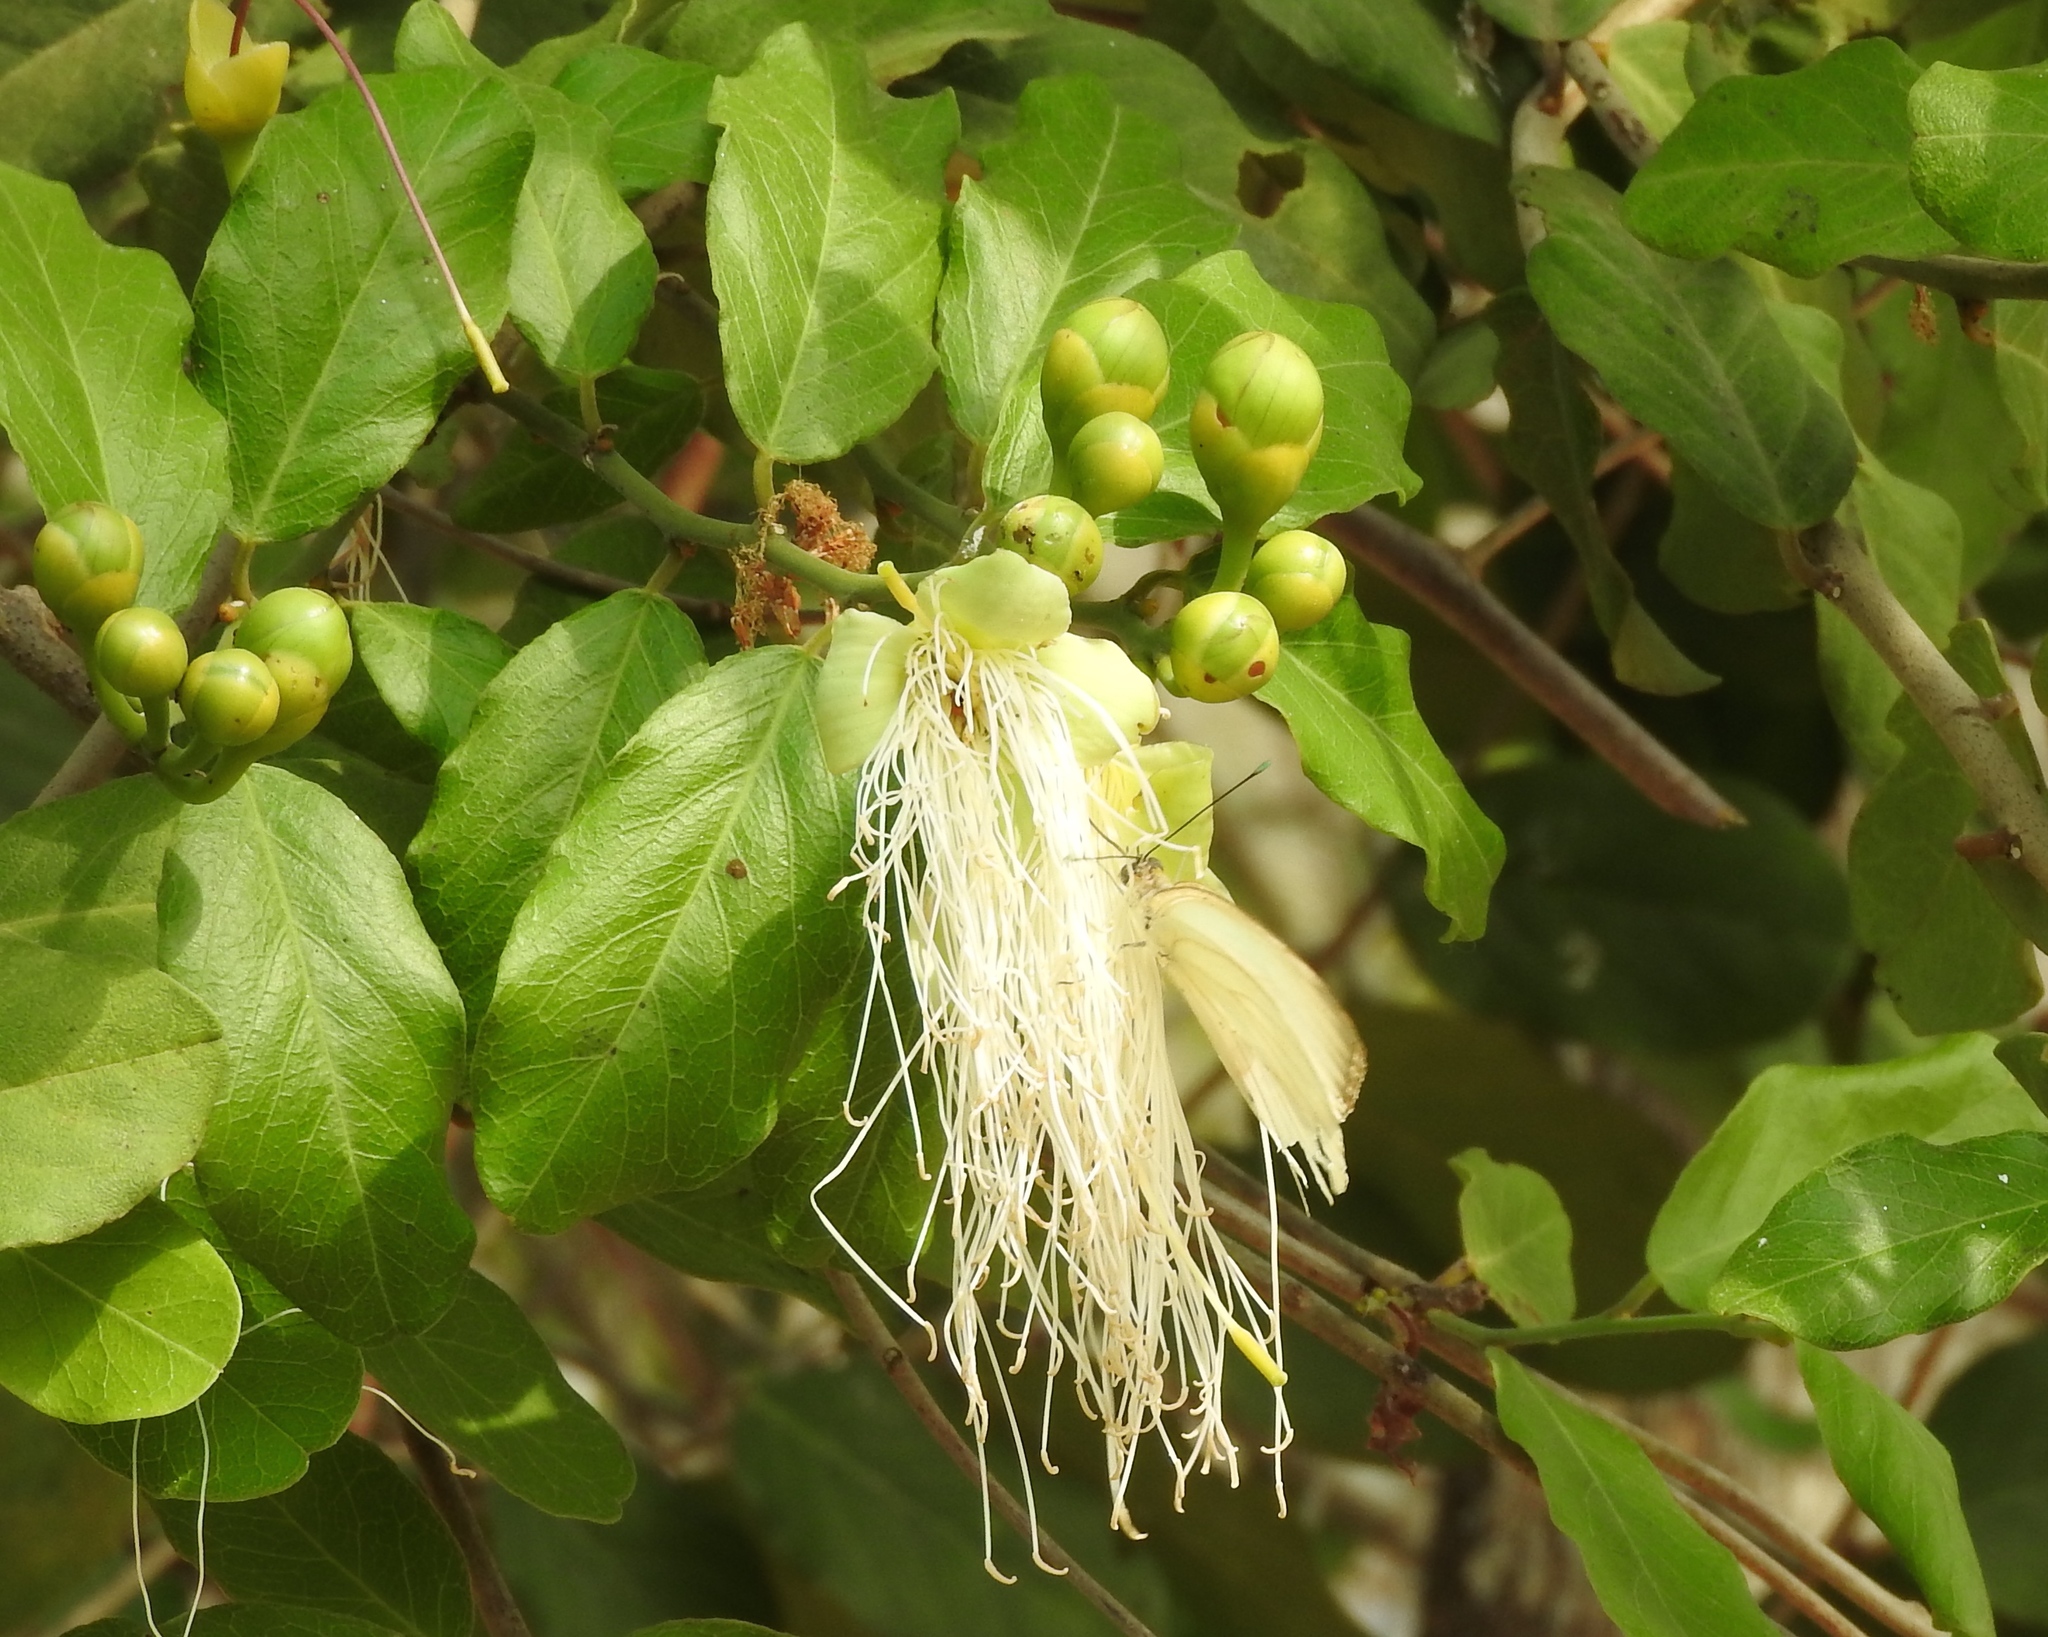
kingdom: Plantae
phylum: Tracheophyta
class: Magnoliopsida
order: Brassicales
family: Capparaceae
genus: Cynophalla
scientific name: Cynophalla flexuosa
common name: Capertree
